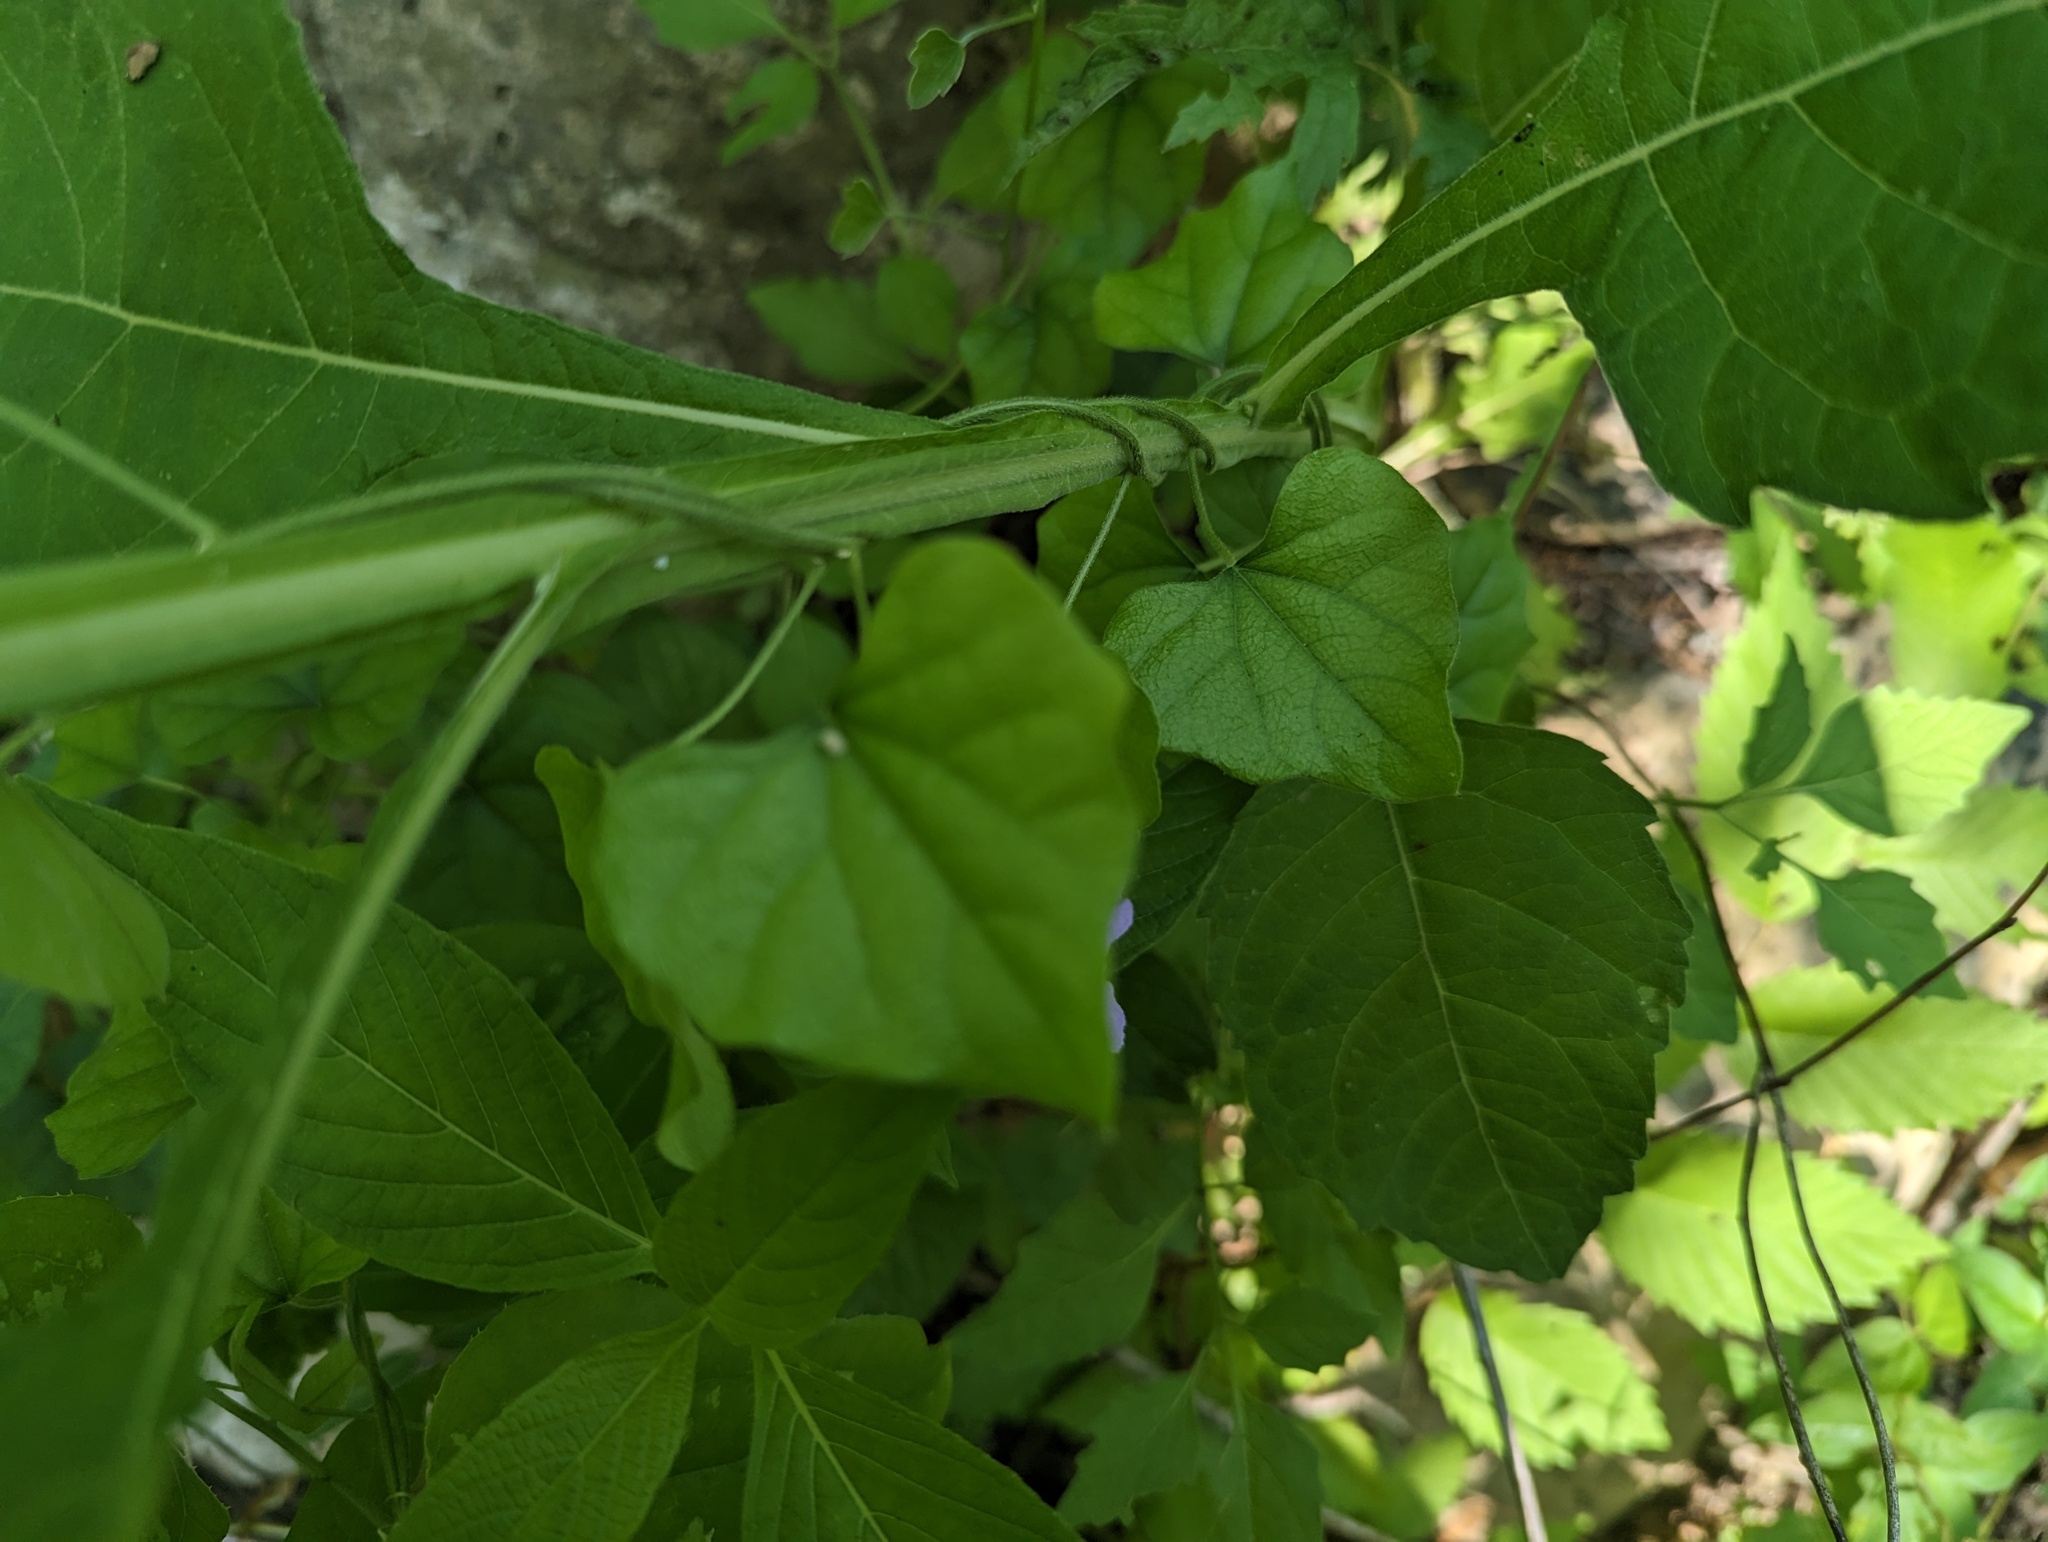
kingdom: Plantae
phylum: Tracheophyta
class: Magnoliopsida
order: Ranunculales
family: Menispermaceae
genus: Cocculus
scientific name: Cocculus carolinus
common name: Carolina moonseed
